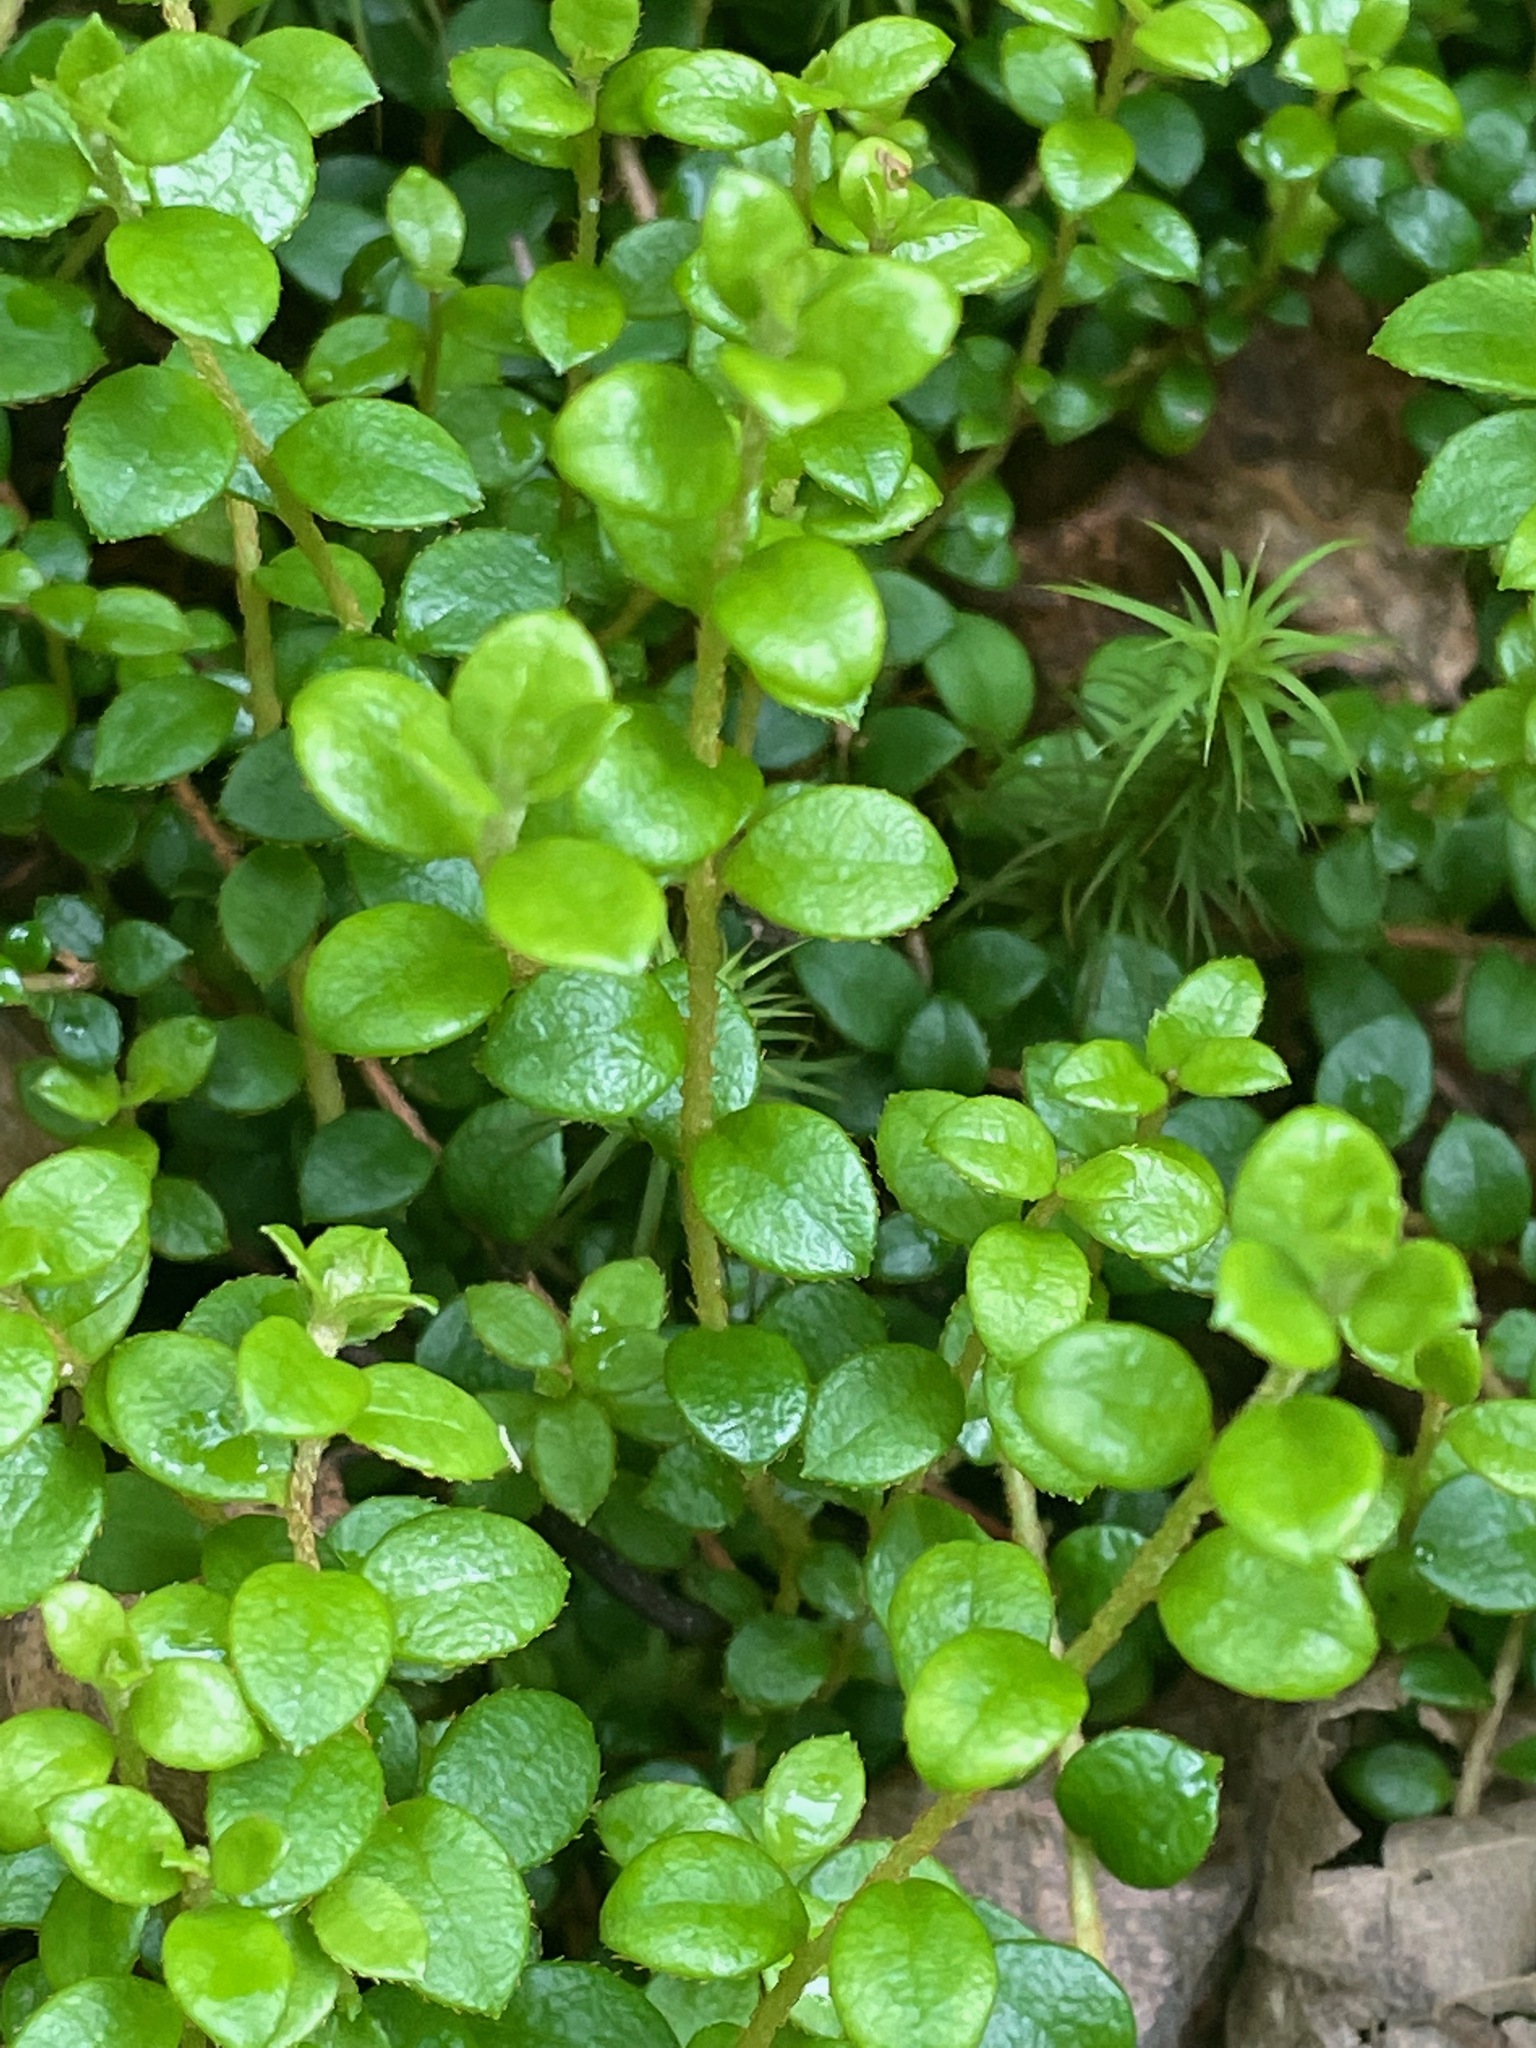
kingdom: Plantae
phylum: Tracheophyta
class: Magnoliopsida
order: Ericales
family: Ericaceae
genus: Gaultheria
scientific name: Gaultheria hispidula
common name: Cancer wintergreen
